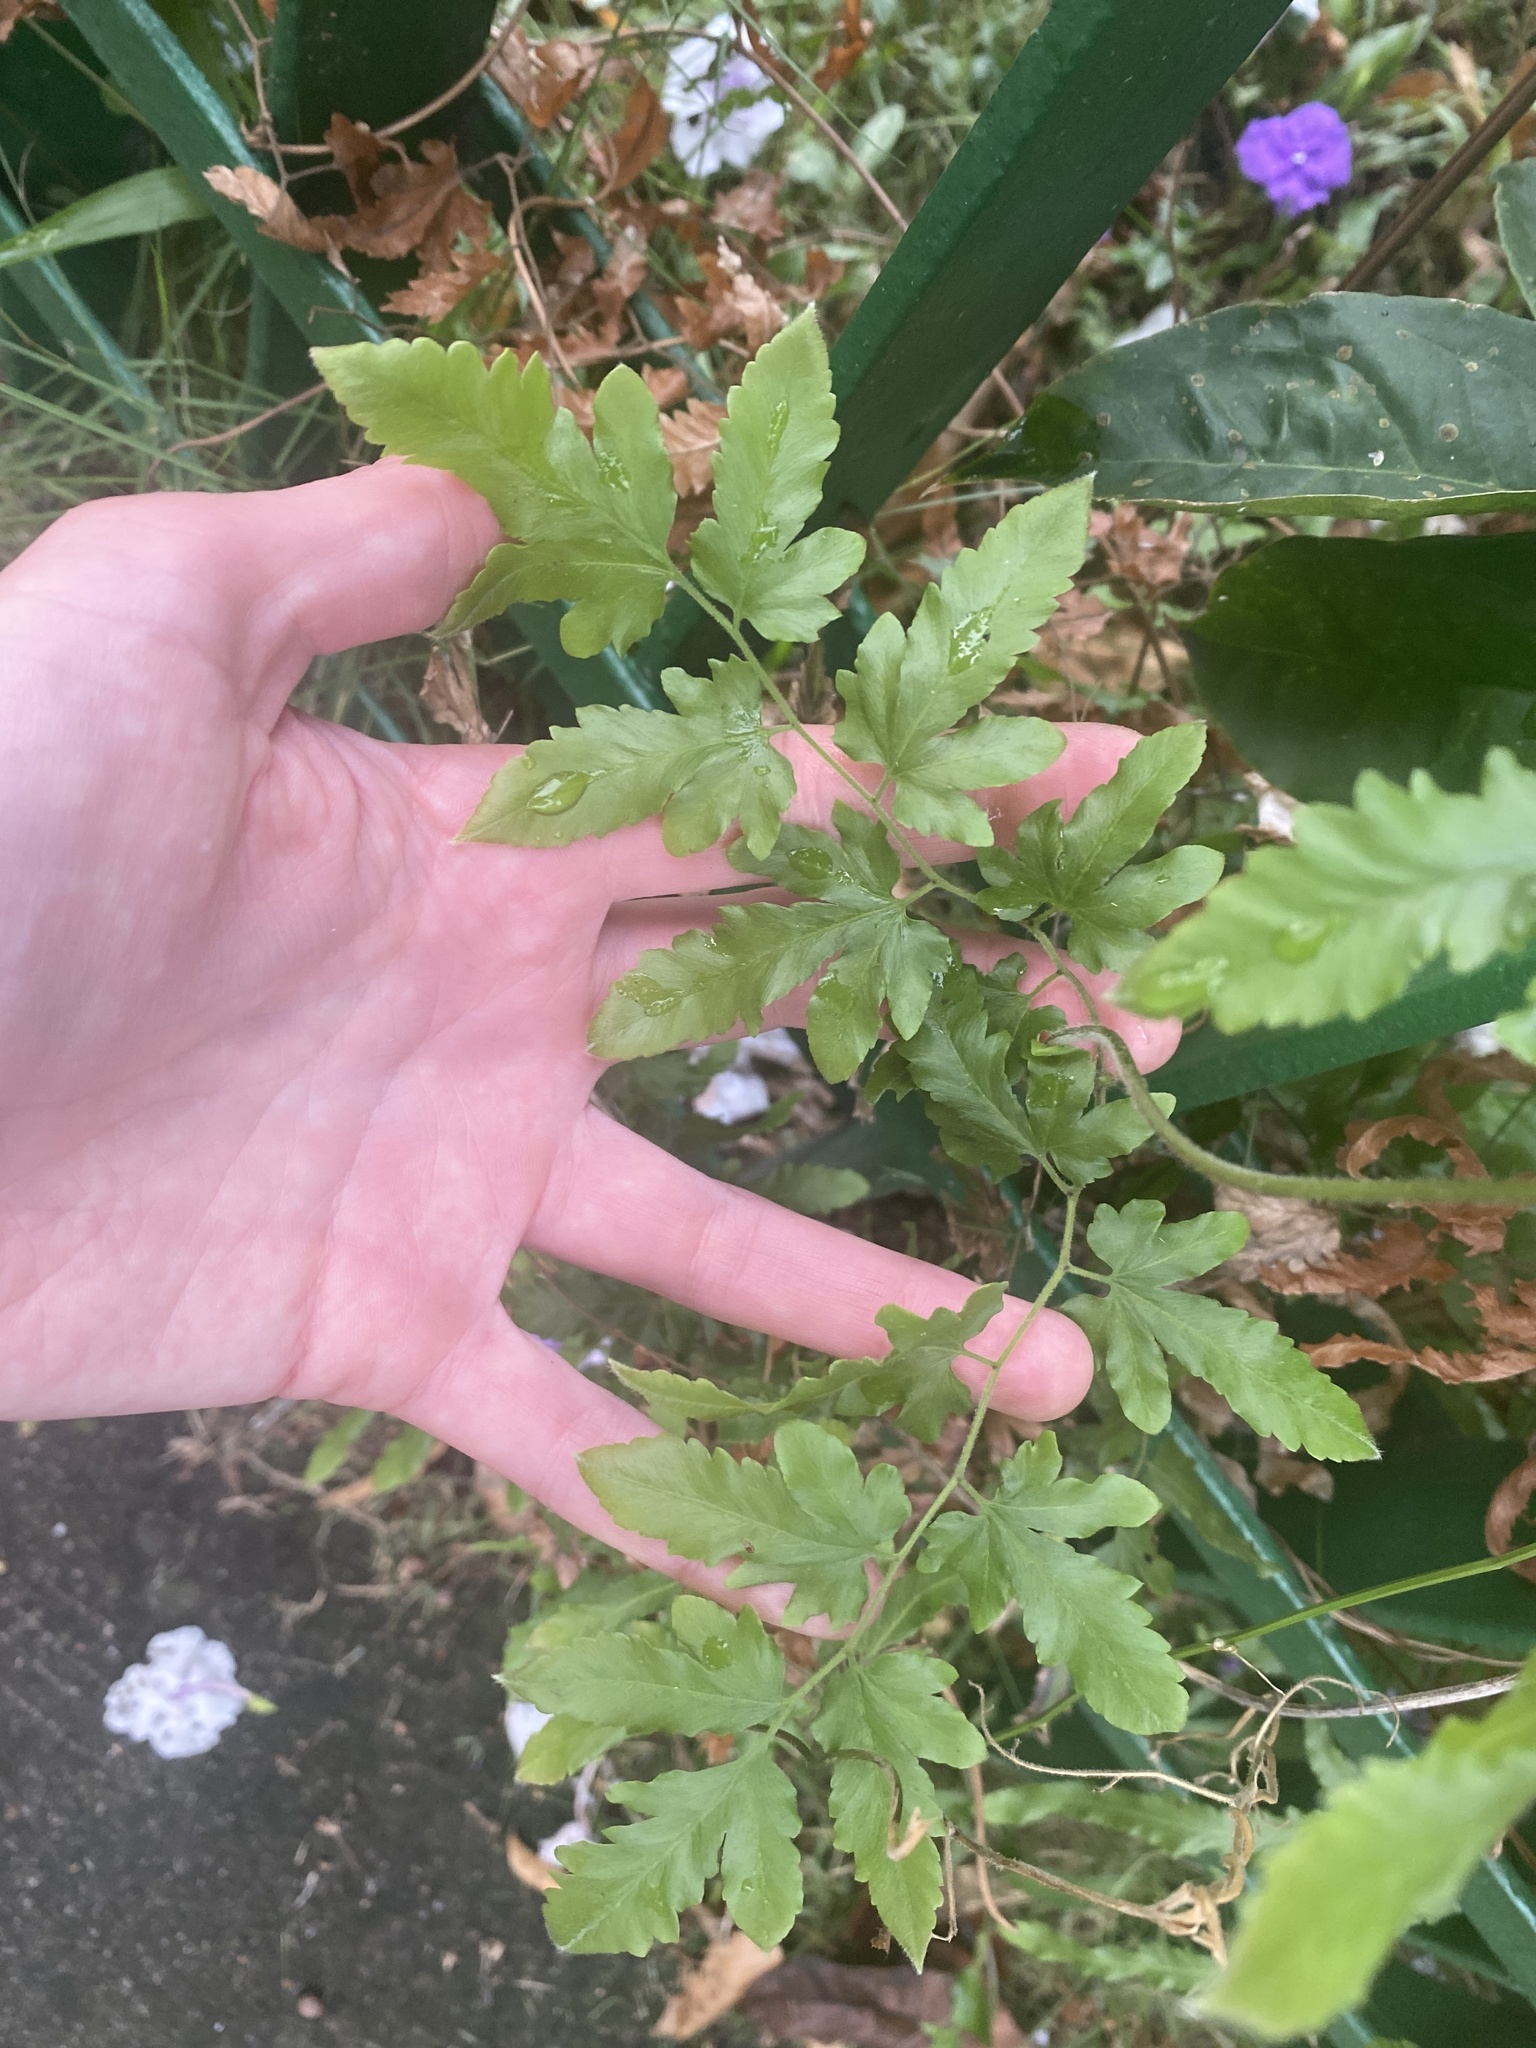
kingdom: Plantae
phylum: Tracheophyta
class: Polypodiopsida
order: Schizaeales
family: Lygodiaceae
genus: Lygodium
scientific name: Lygodium venustum
